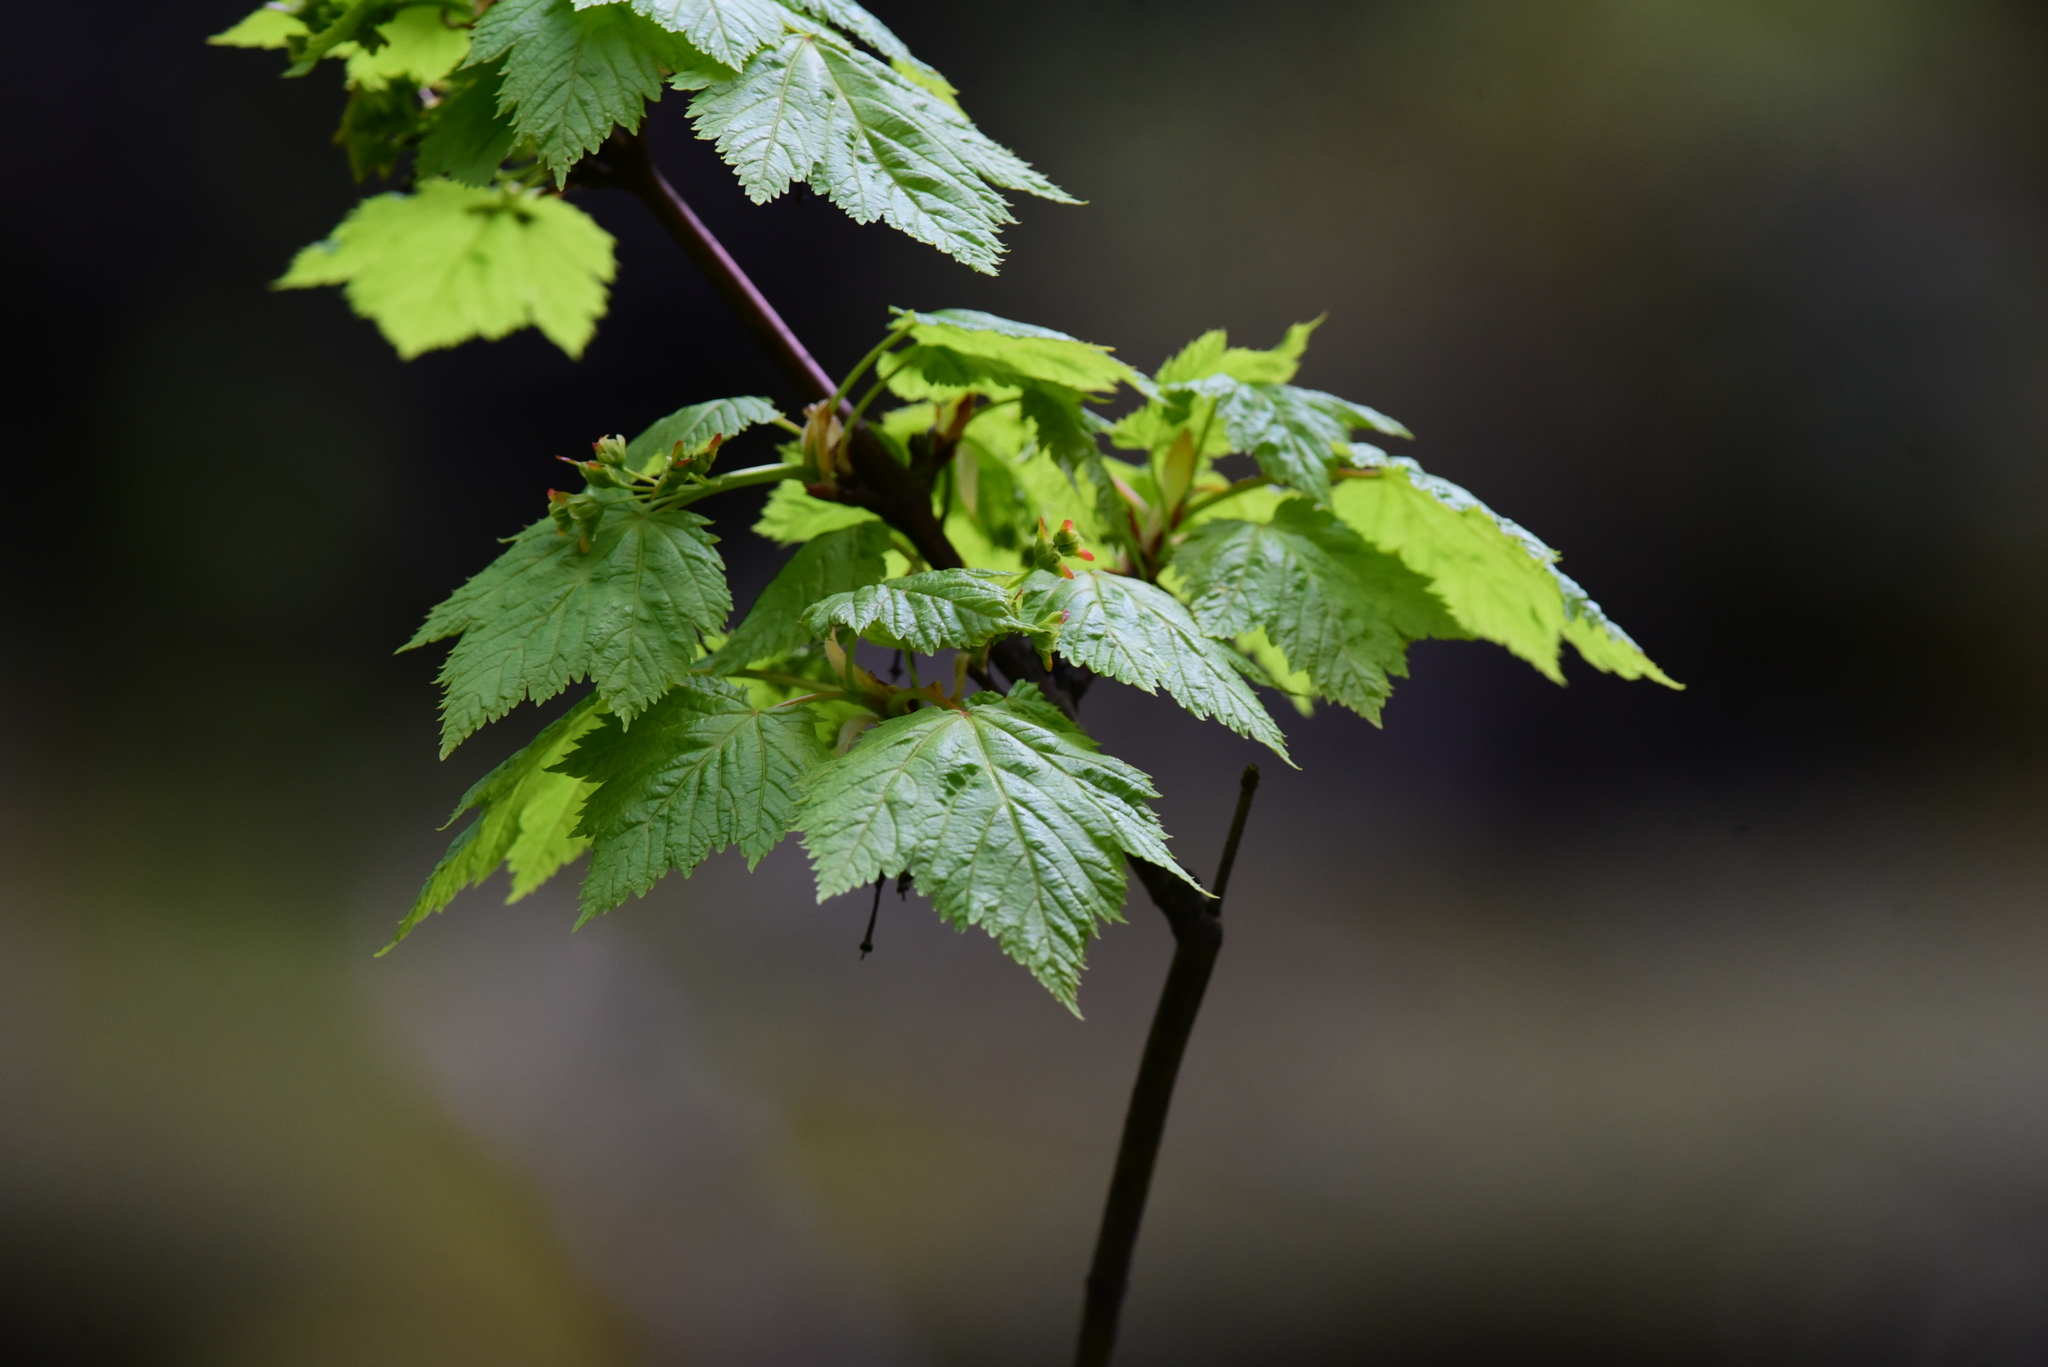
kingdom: Plantae
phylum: Tracheophyta
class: Magnoliopsida
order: Sapindales
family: Sapindaceae
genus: Acer
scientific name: Acer glabrum
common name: Rocky mountain maple
